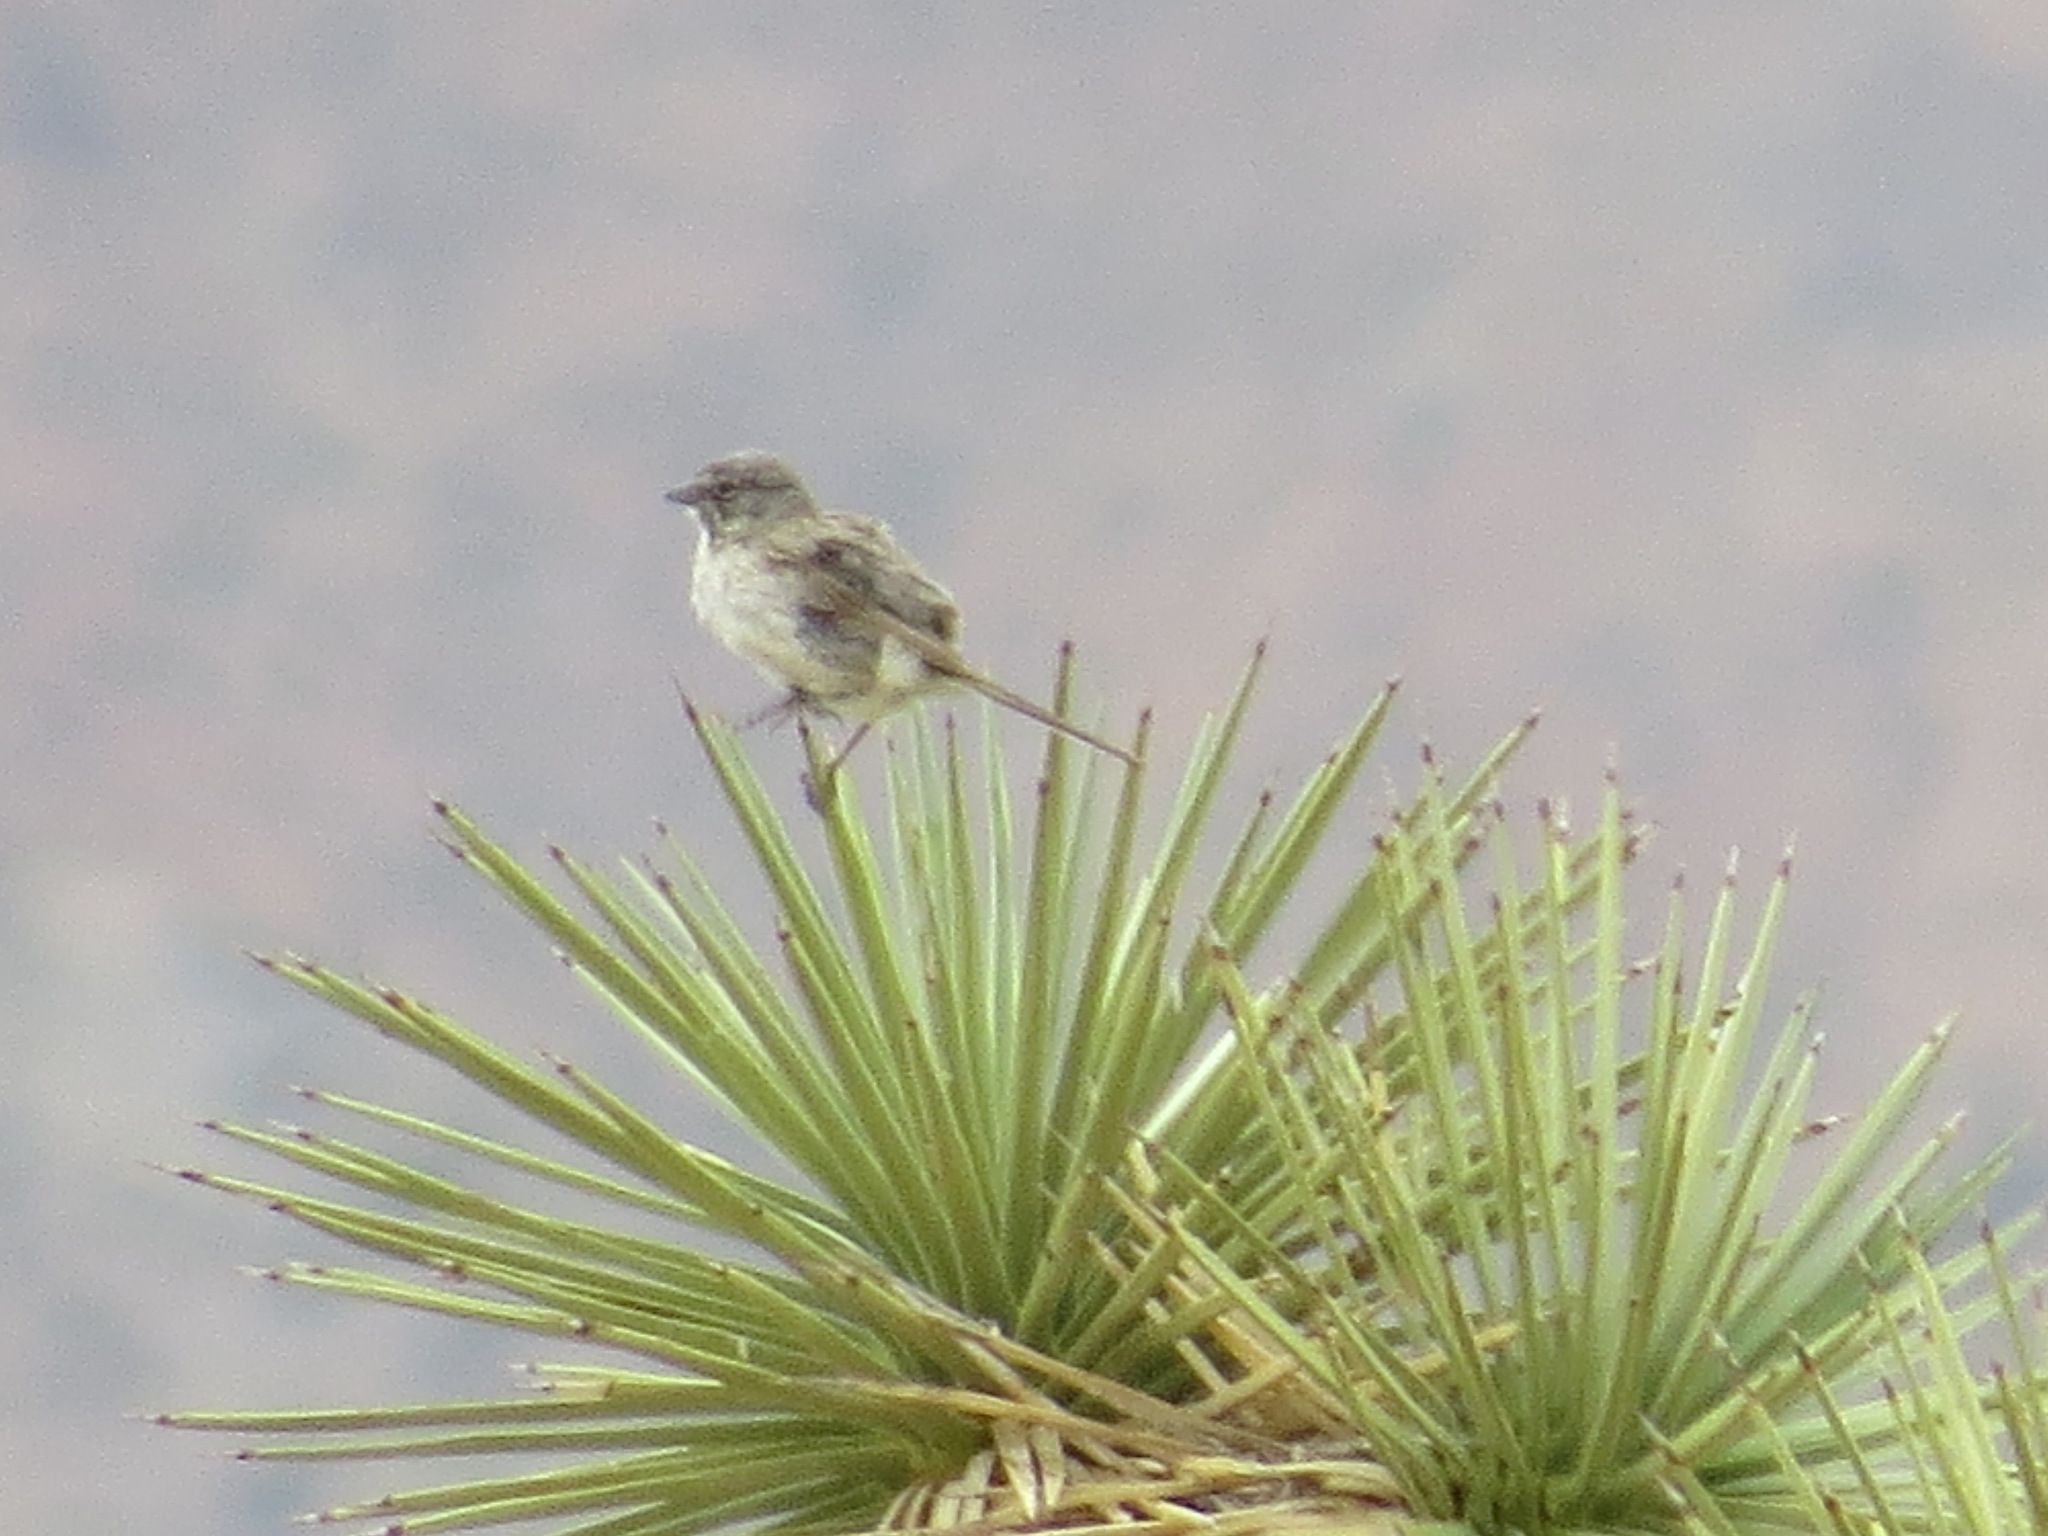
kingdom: Animalia
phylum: Chordata
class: Aves
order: Passeriformes
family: Passerellidae
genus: Artemisiospiza
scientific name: Artemisiospiza belli
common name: Bell's sparrow
